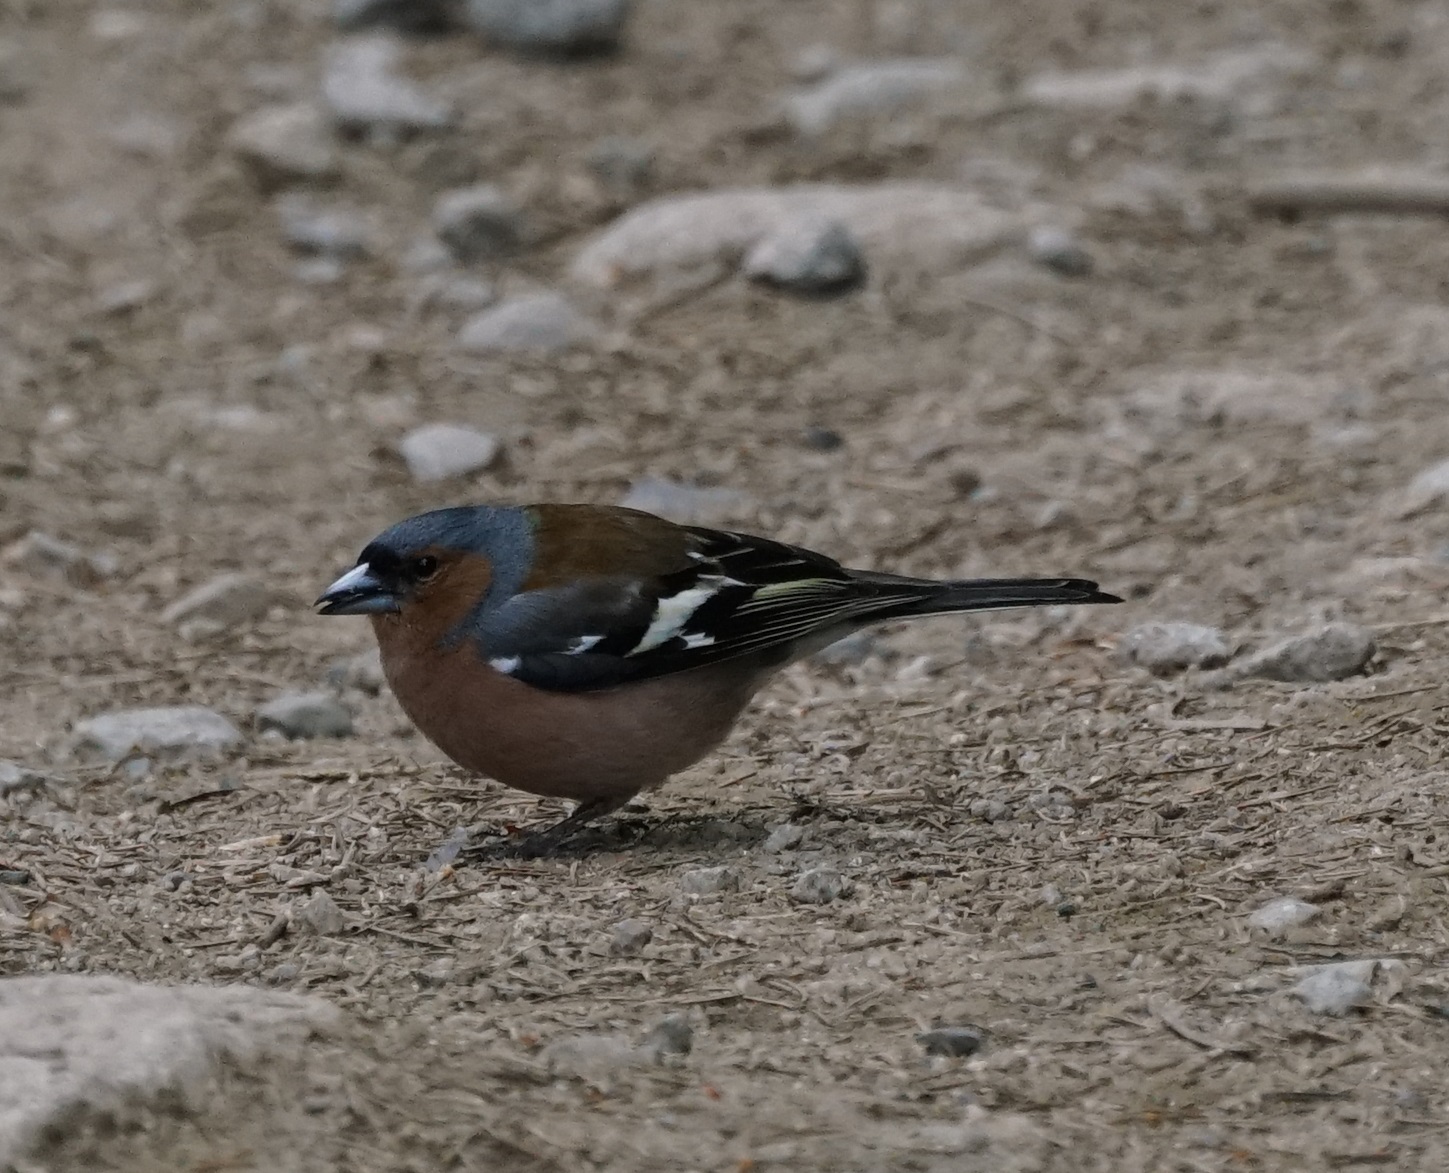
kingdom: Animalia
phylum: Chordata
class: Aves
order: Passeriformes
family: Fringillidae
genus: Fringilla
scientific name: Fringilla coelebs
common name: Common chaffinch
